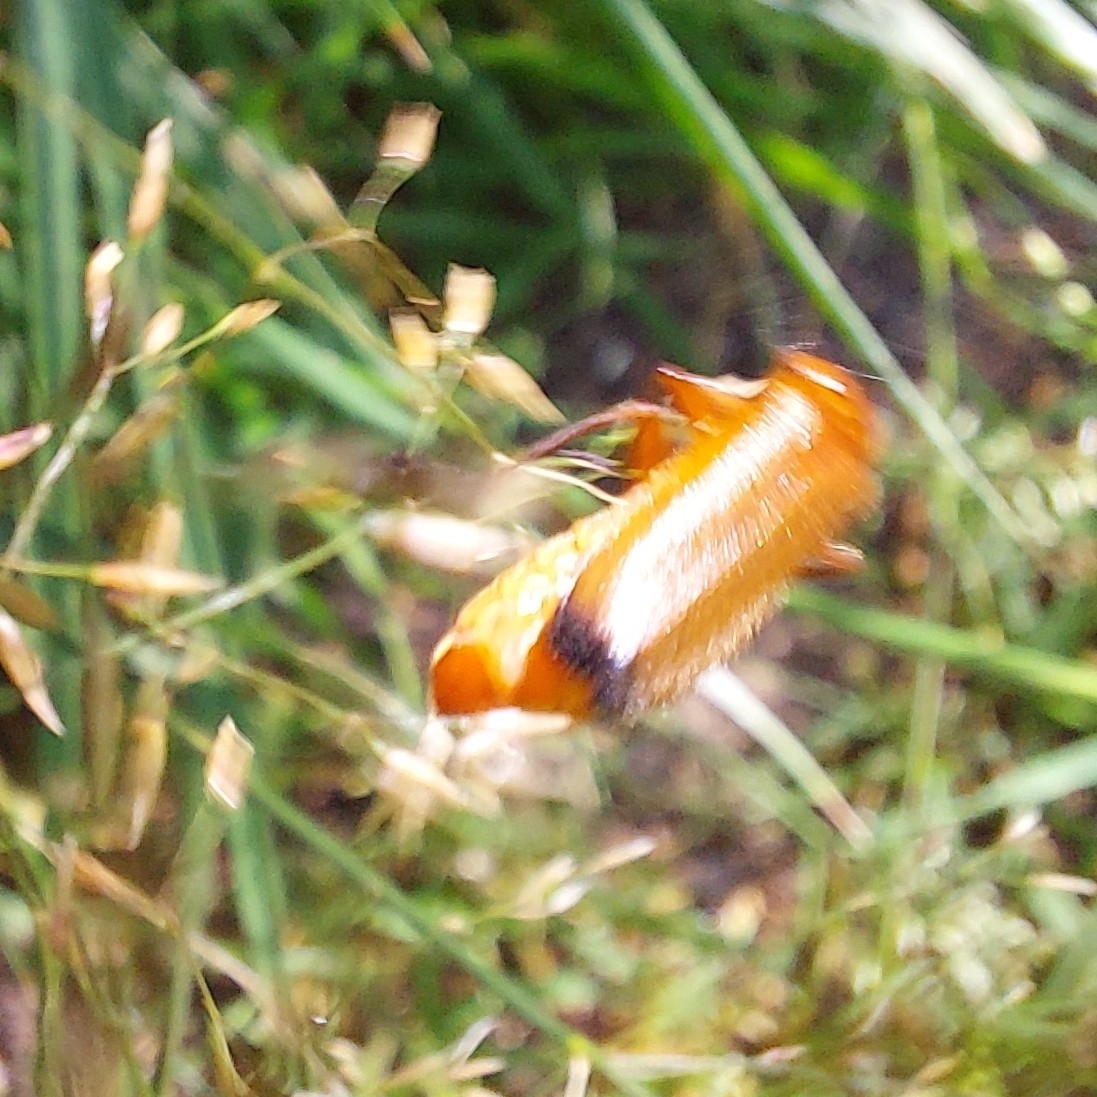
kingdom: Animalia
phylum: Arthropoda
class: Insecta
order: Coleoptera
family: Cantharidae
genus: Rhagonycha
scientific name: Rhagonycha fulva
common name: Common red soldier beetle
